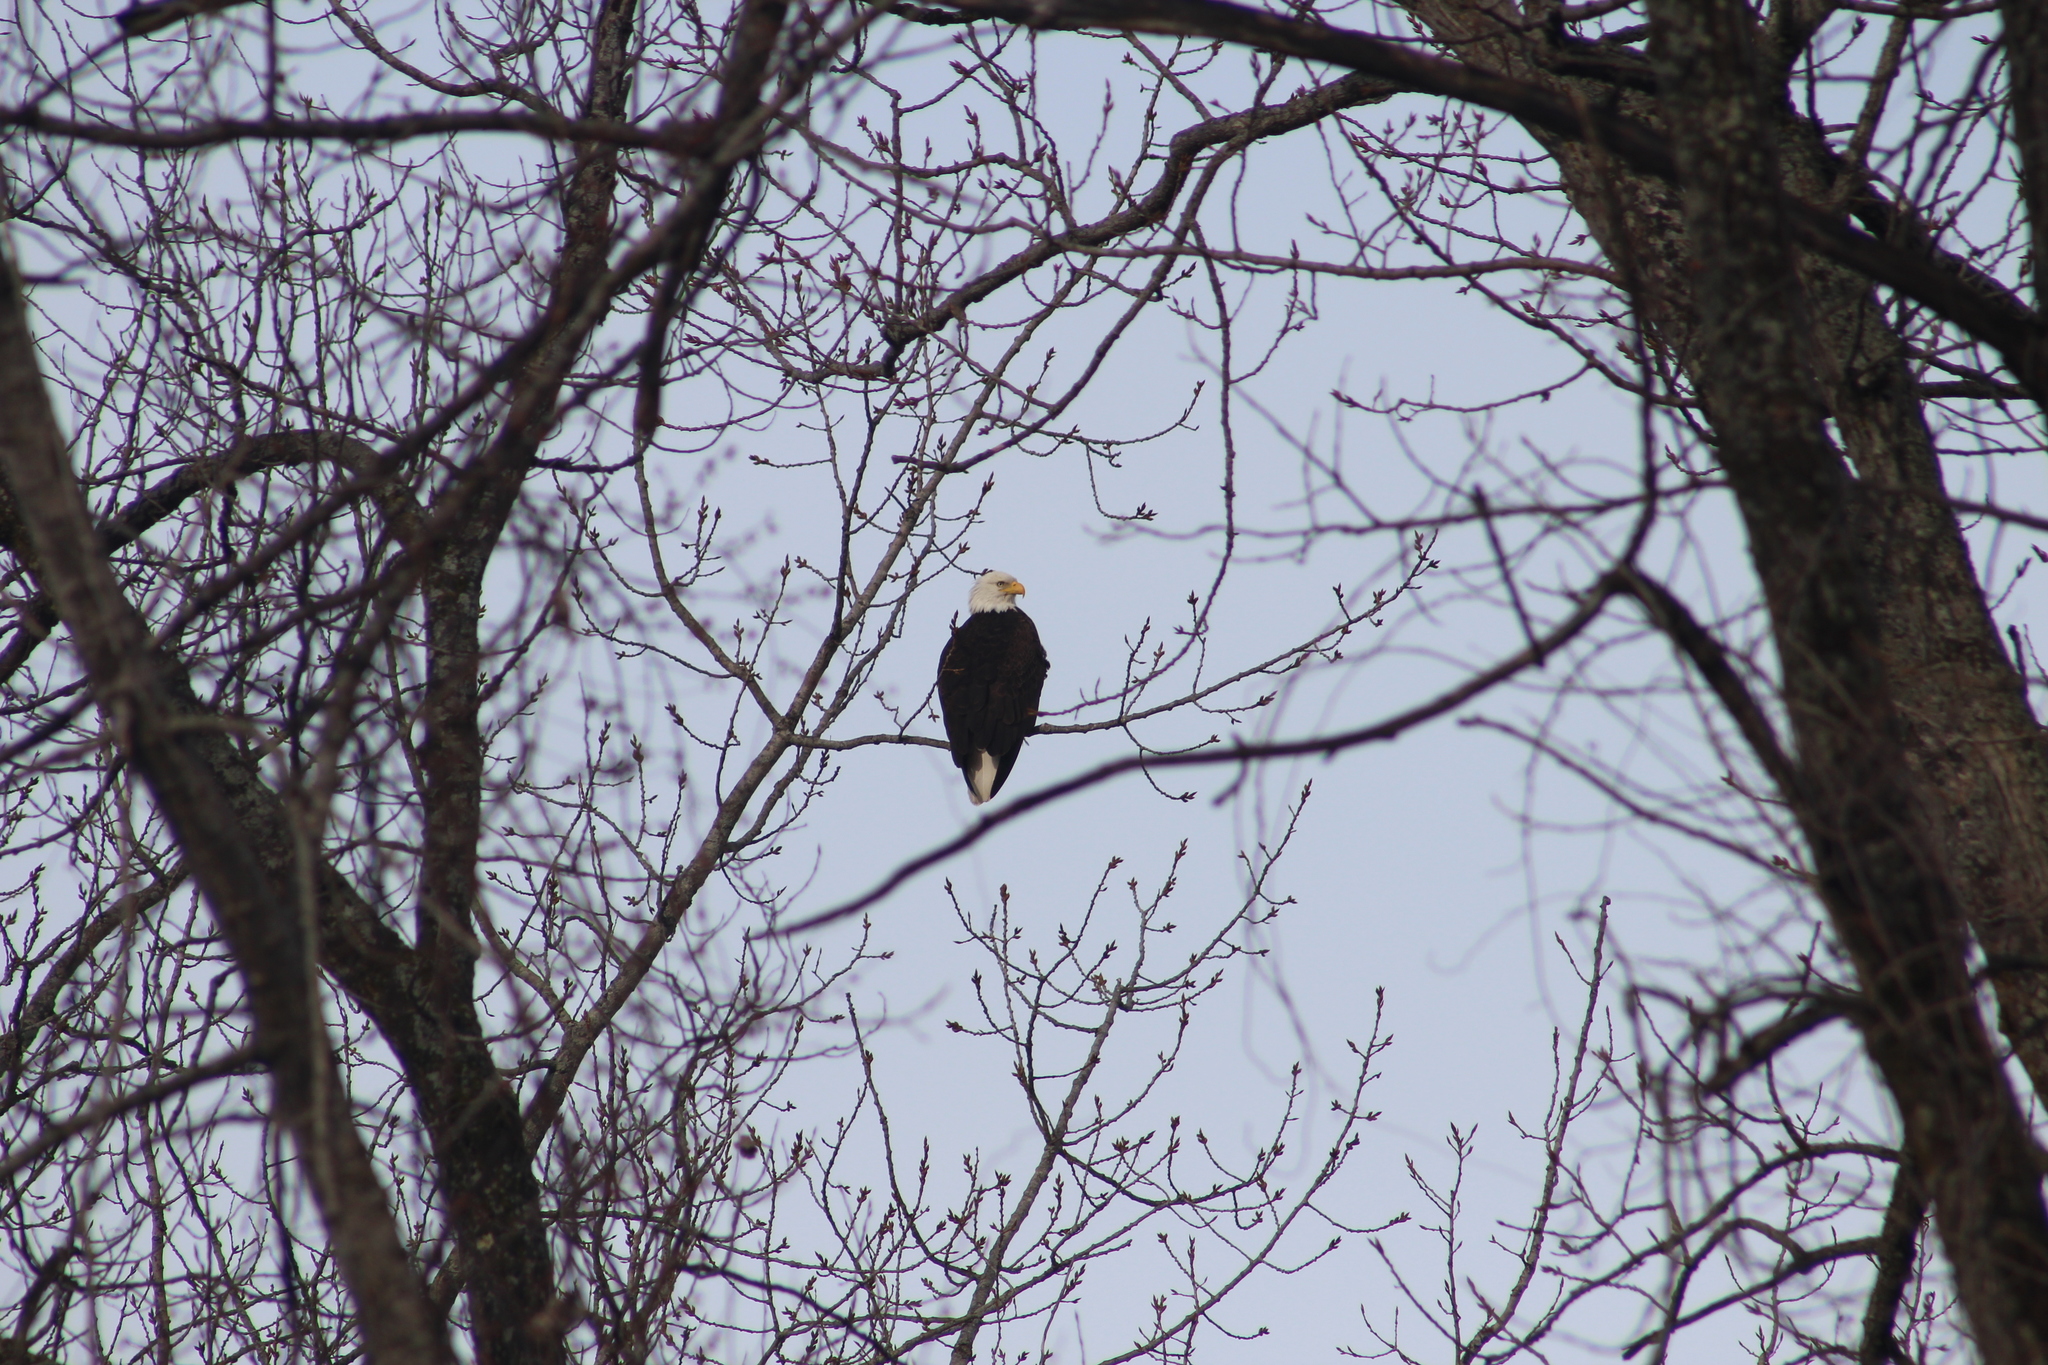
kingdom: Animalia
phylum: Chordata
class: Aves
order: Accipitriformes
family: Accipitridae
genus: Haliaeetus
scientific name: Haliaeetus leucocephalus
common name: Bald eagle
